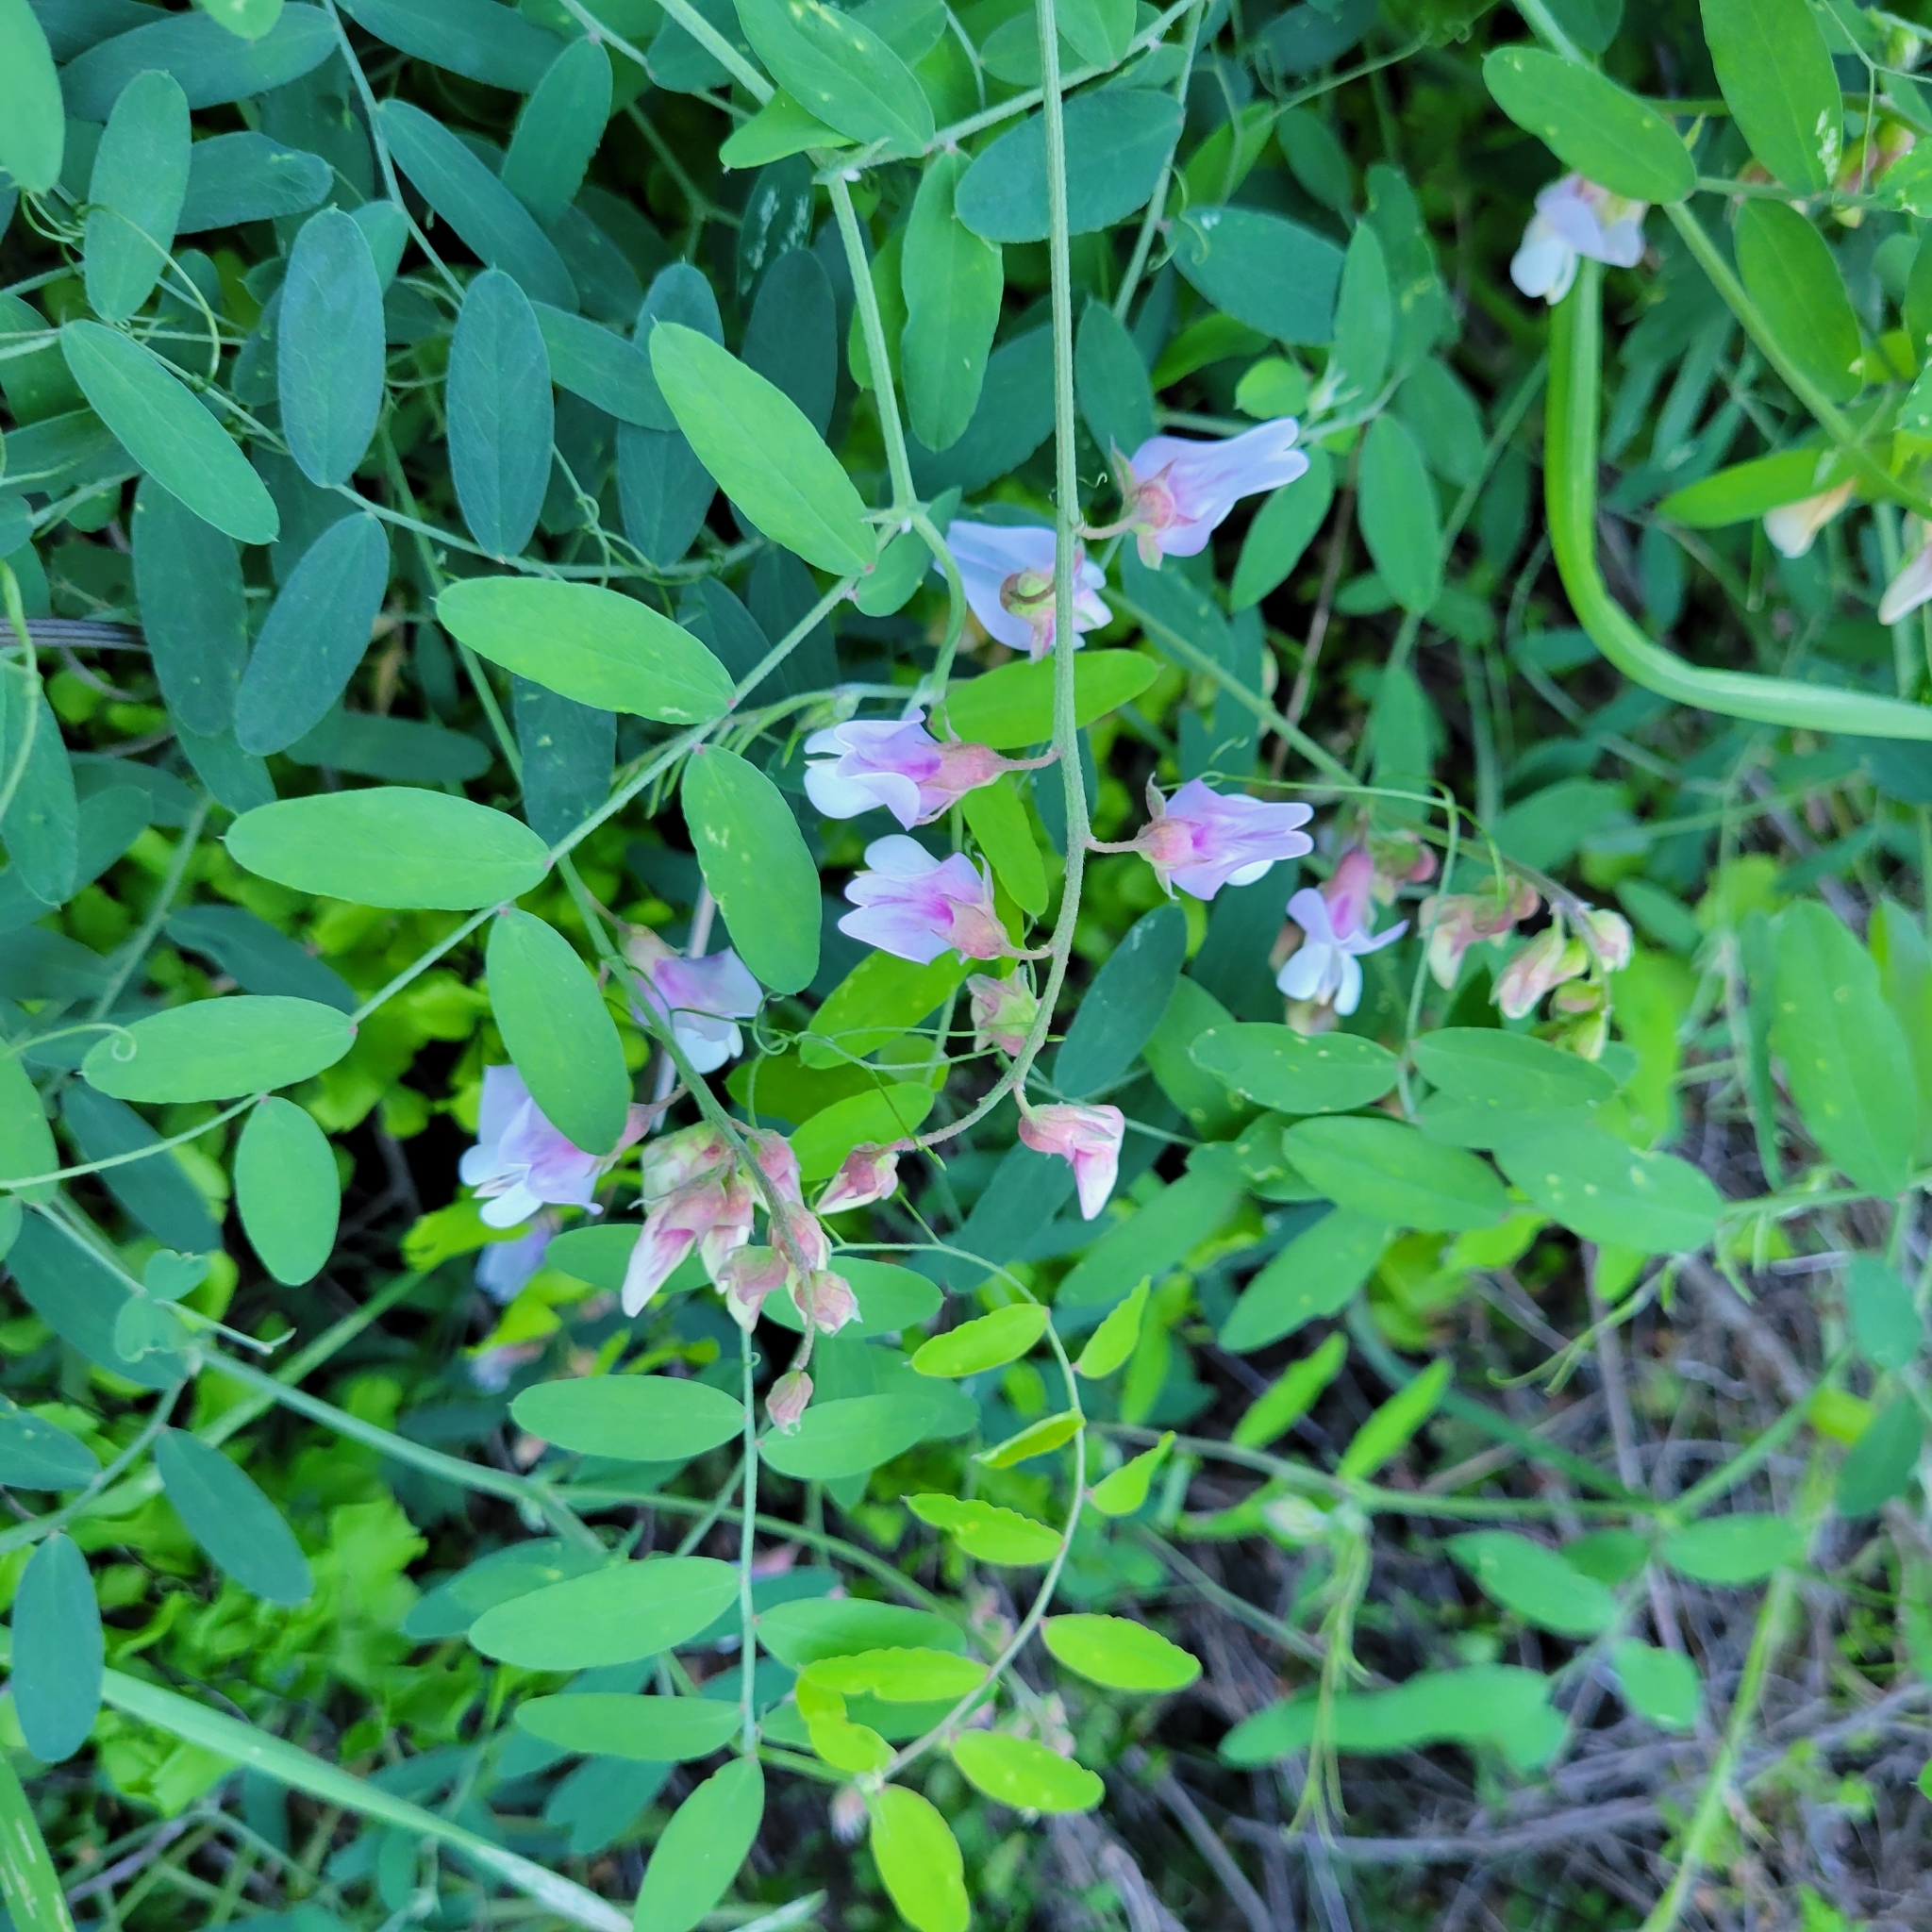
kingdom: Plantae
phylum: Tracheophyta
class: Magnoliopsida
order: Fabales
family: Fabaceae
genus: Lathyrus
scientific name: Lathyrus vestitus
